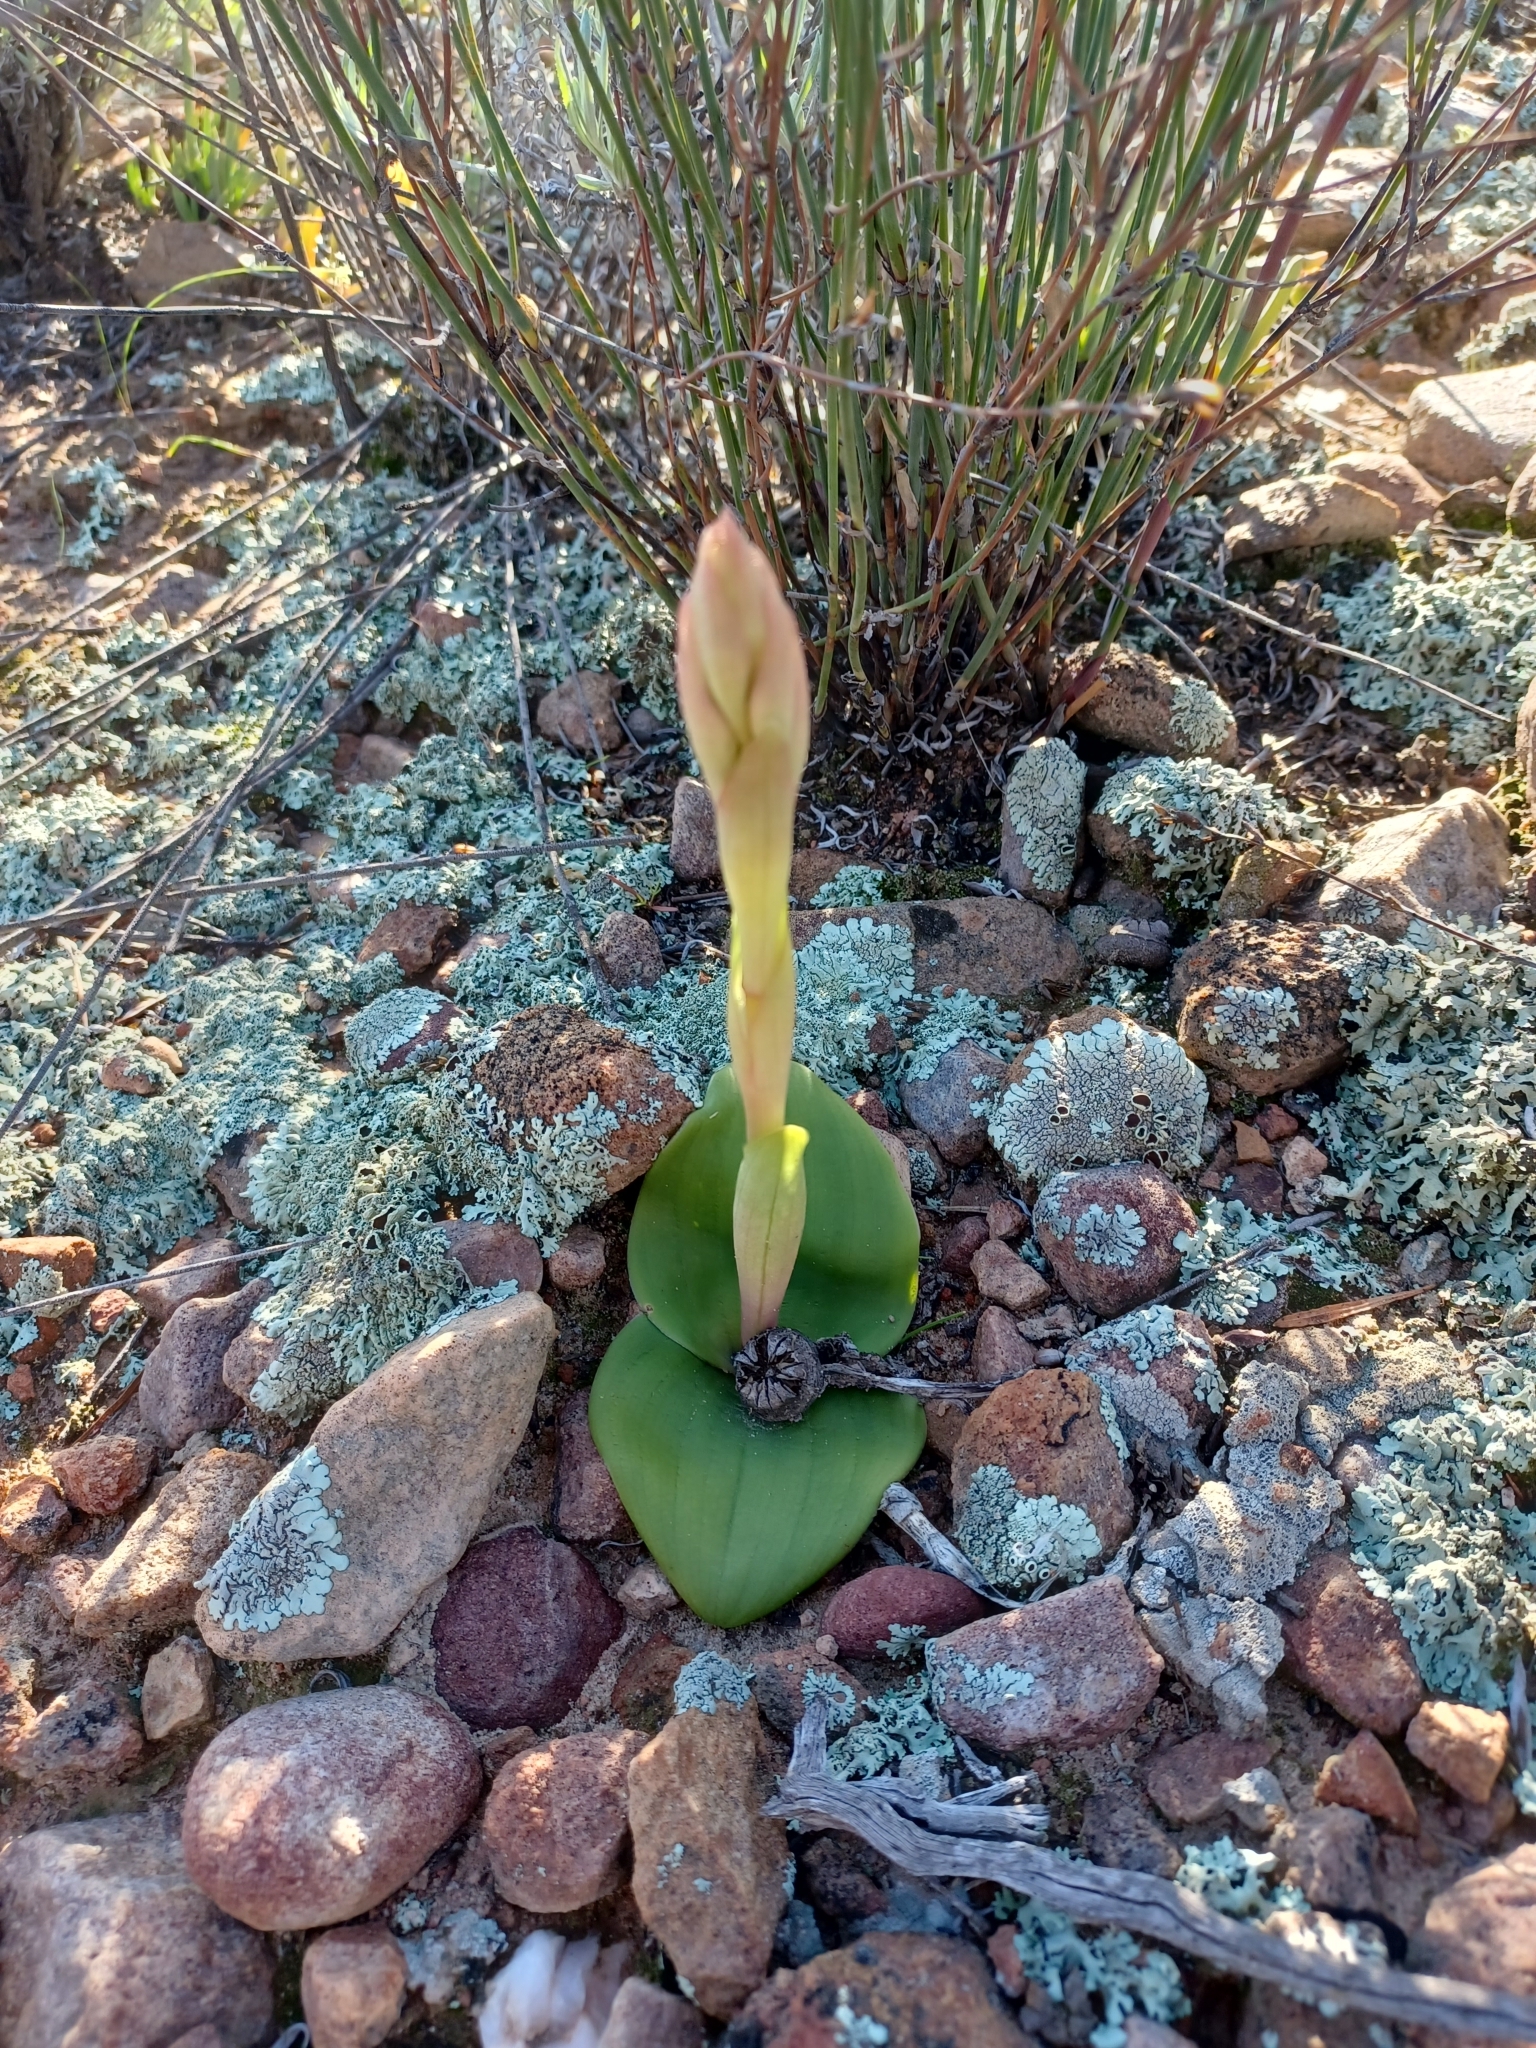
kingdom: Plantae
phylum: Tracheophyta
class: Liliopsida
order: Asparagales
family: Orchidaceae
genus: Satyrium
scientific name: Satyrium erectum
